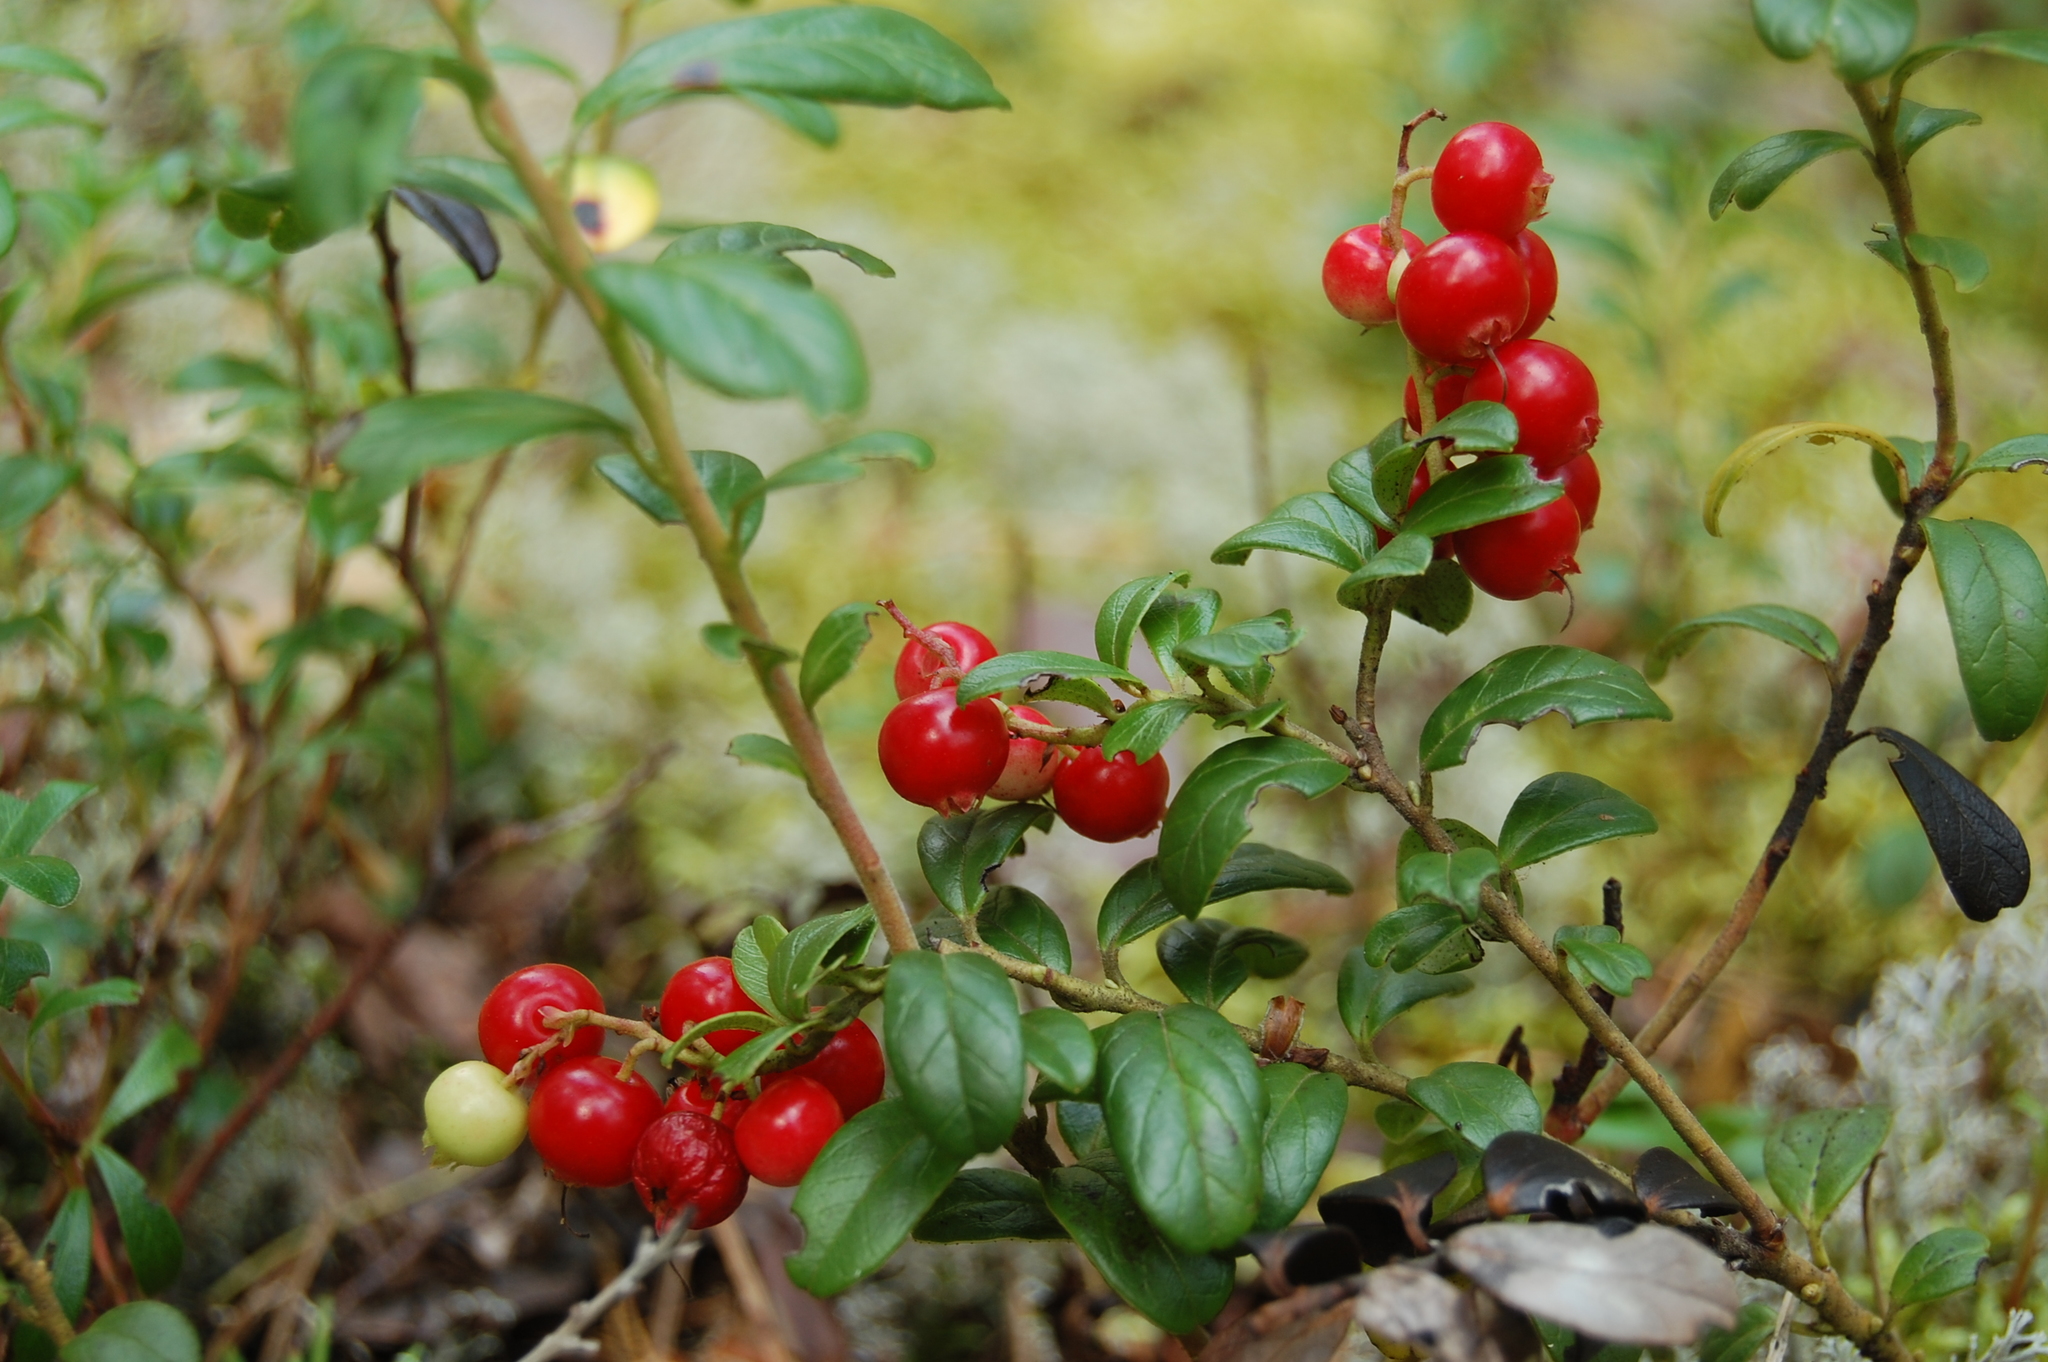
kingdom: Plantae
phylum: Tracheophyta
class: Magnoliopsida
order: Ericales
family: Ericaceae
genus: Vaccinium
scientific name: Vaccinium vitis-idaea
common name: Cowberry
